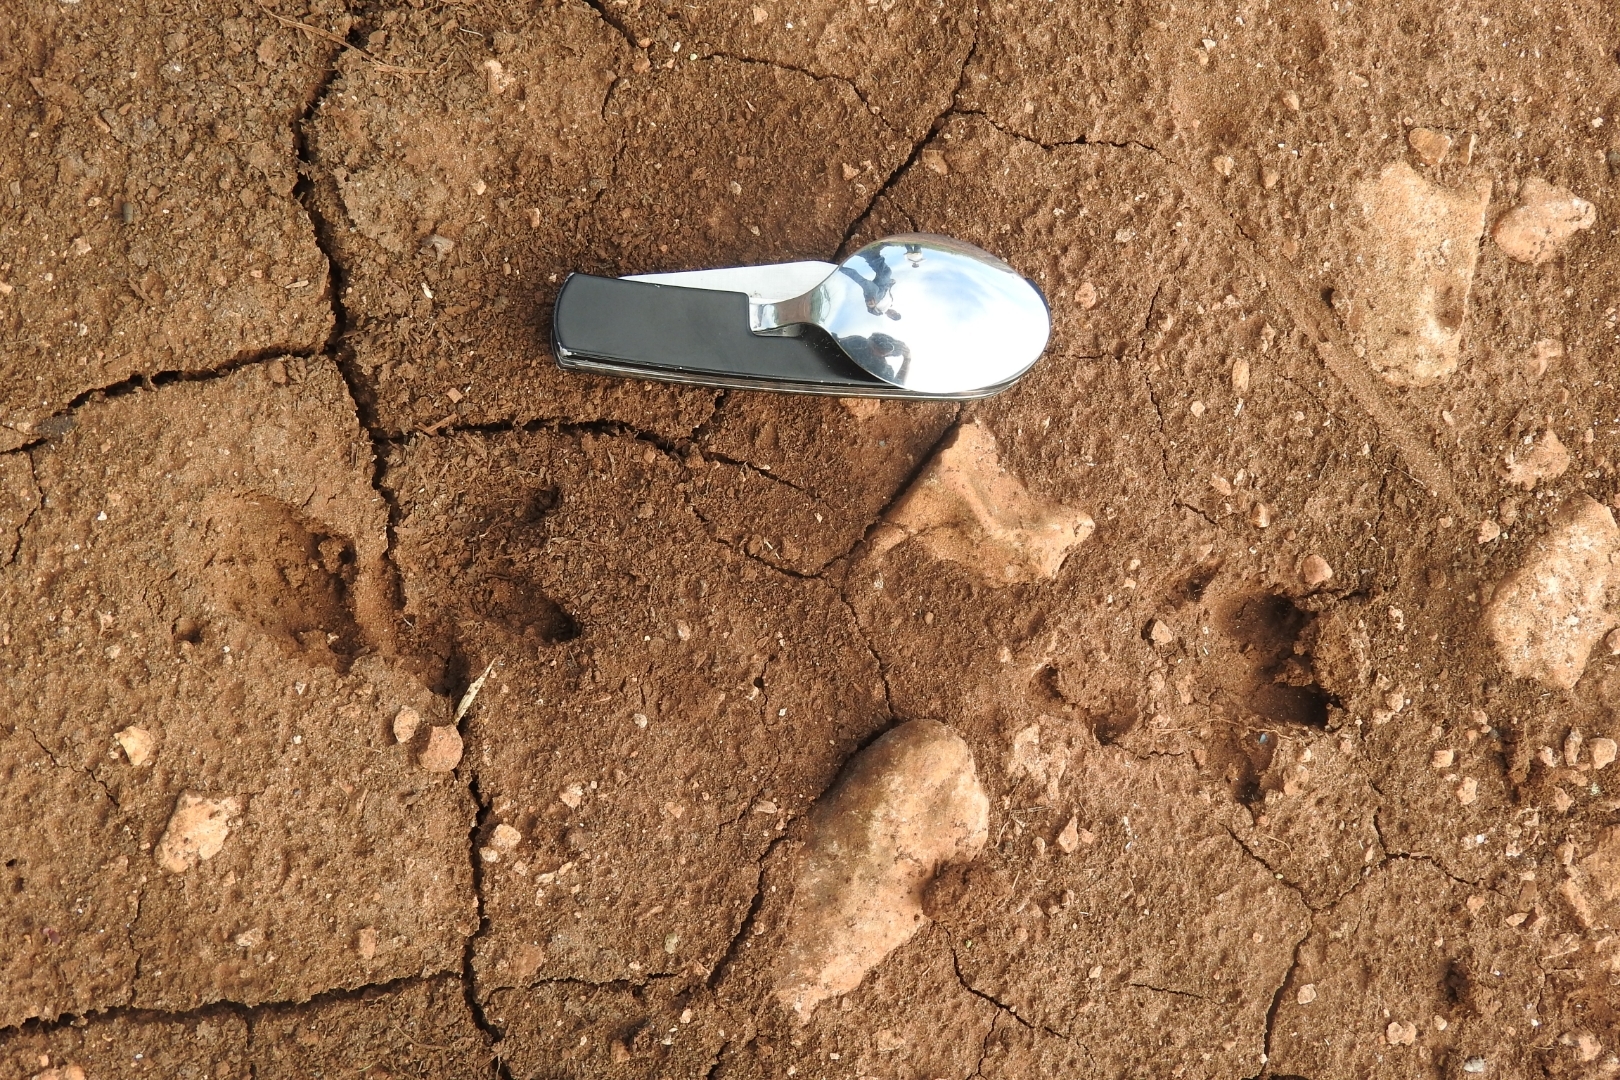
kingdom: Animalia
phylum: Chordata
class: Mammalia
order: Cingulata
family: Dasypodidae
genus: Dasypus
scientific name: Dasypus novemcinctus
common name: Nine-banded armadillo
